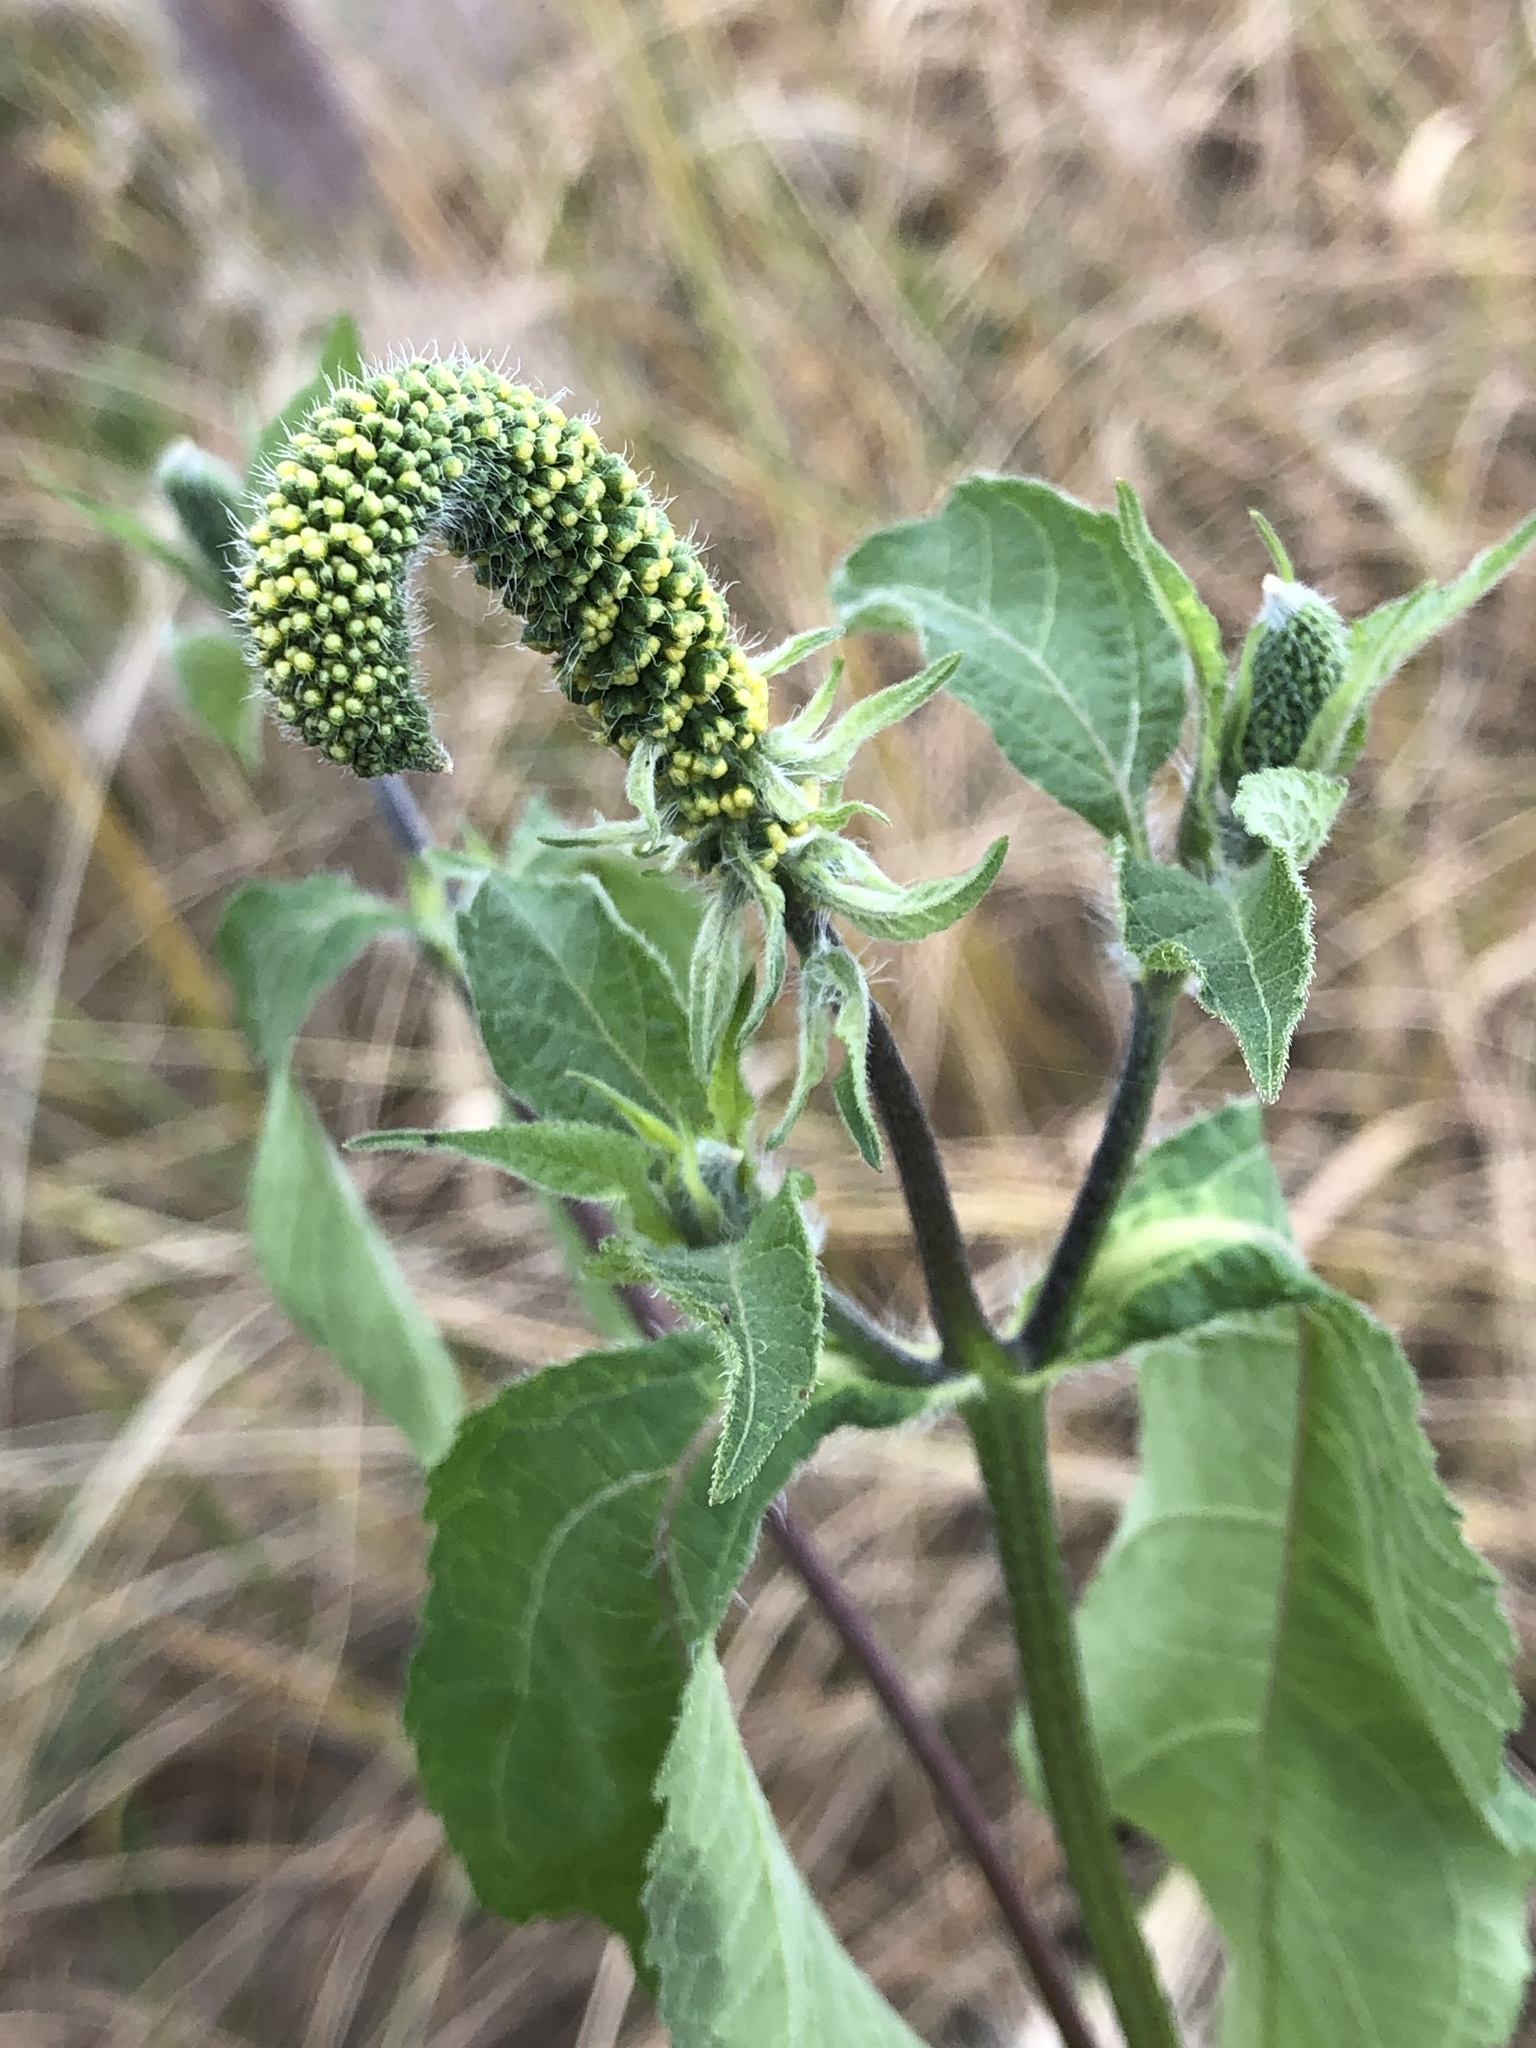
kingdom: Plantae
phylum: Tracheophyta
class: Magnoliopsida
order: Asterales
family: Asteraceae
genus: Ambrosia
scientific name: Ambrosia trifida
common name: Giant ragweed
